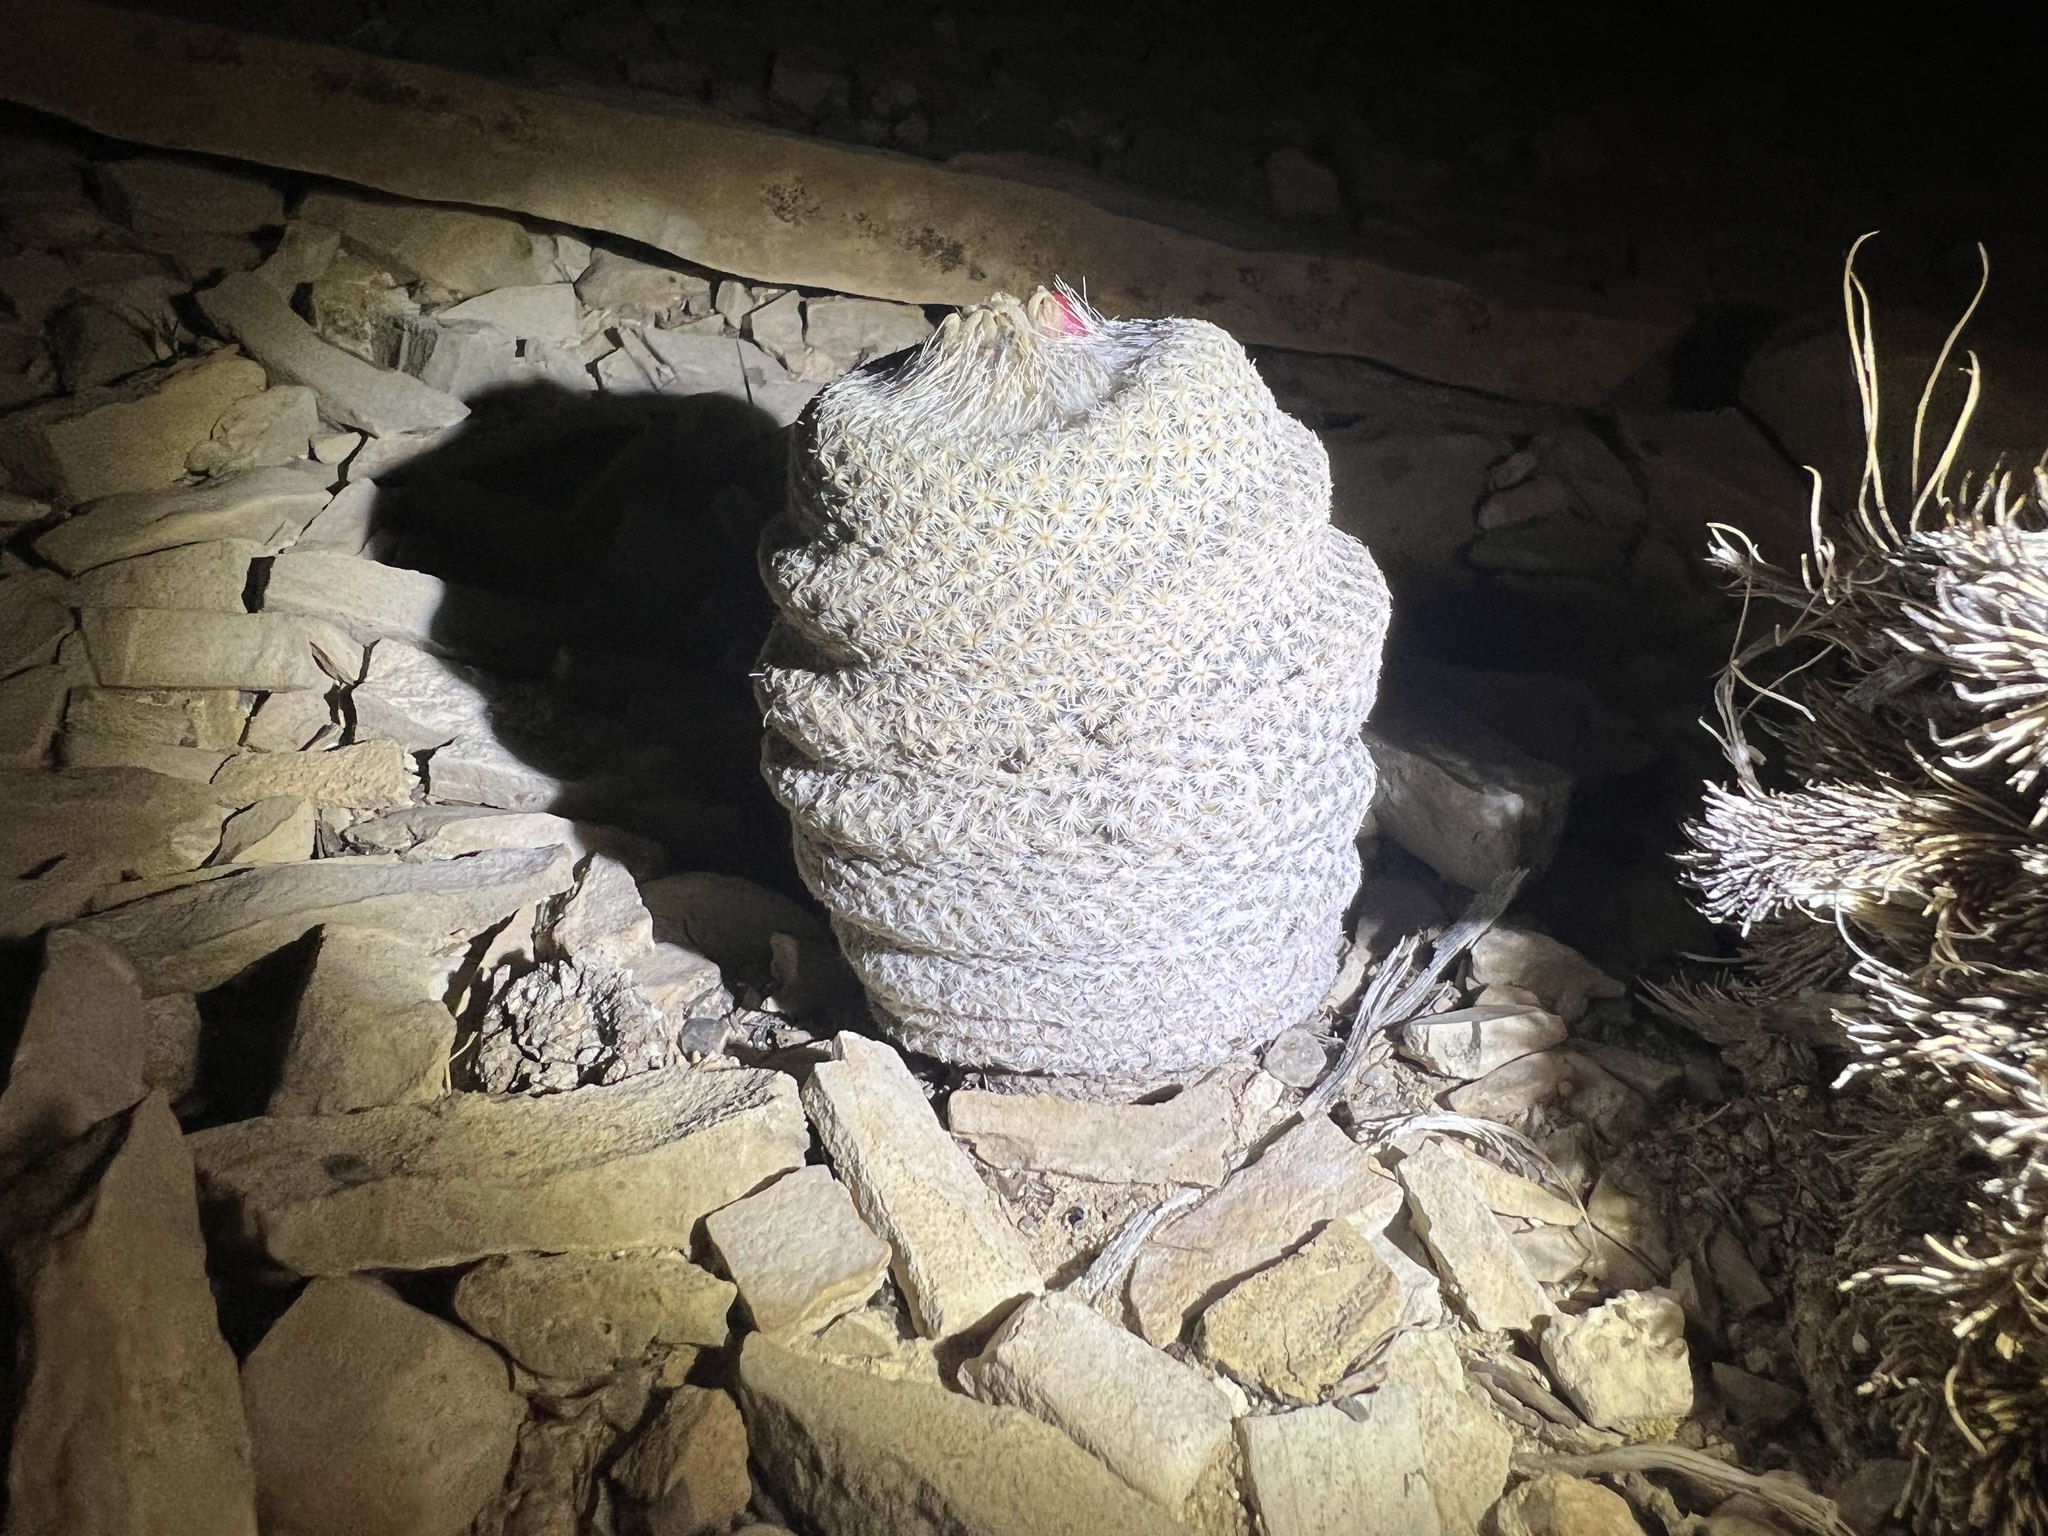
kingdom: Plantae
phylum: Tracheophyta
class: Magnoliopsida
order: Caryophyllales
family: Cactaceae
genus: Epithelantha
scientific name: Epithelantha bokei
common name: Boke's button cactus
